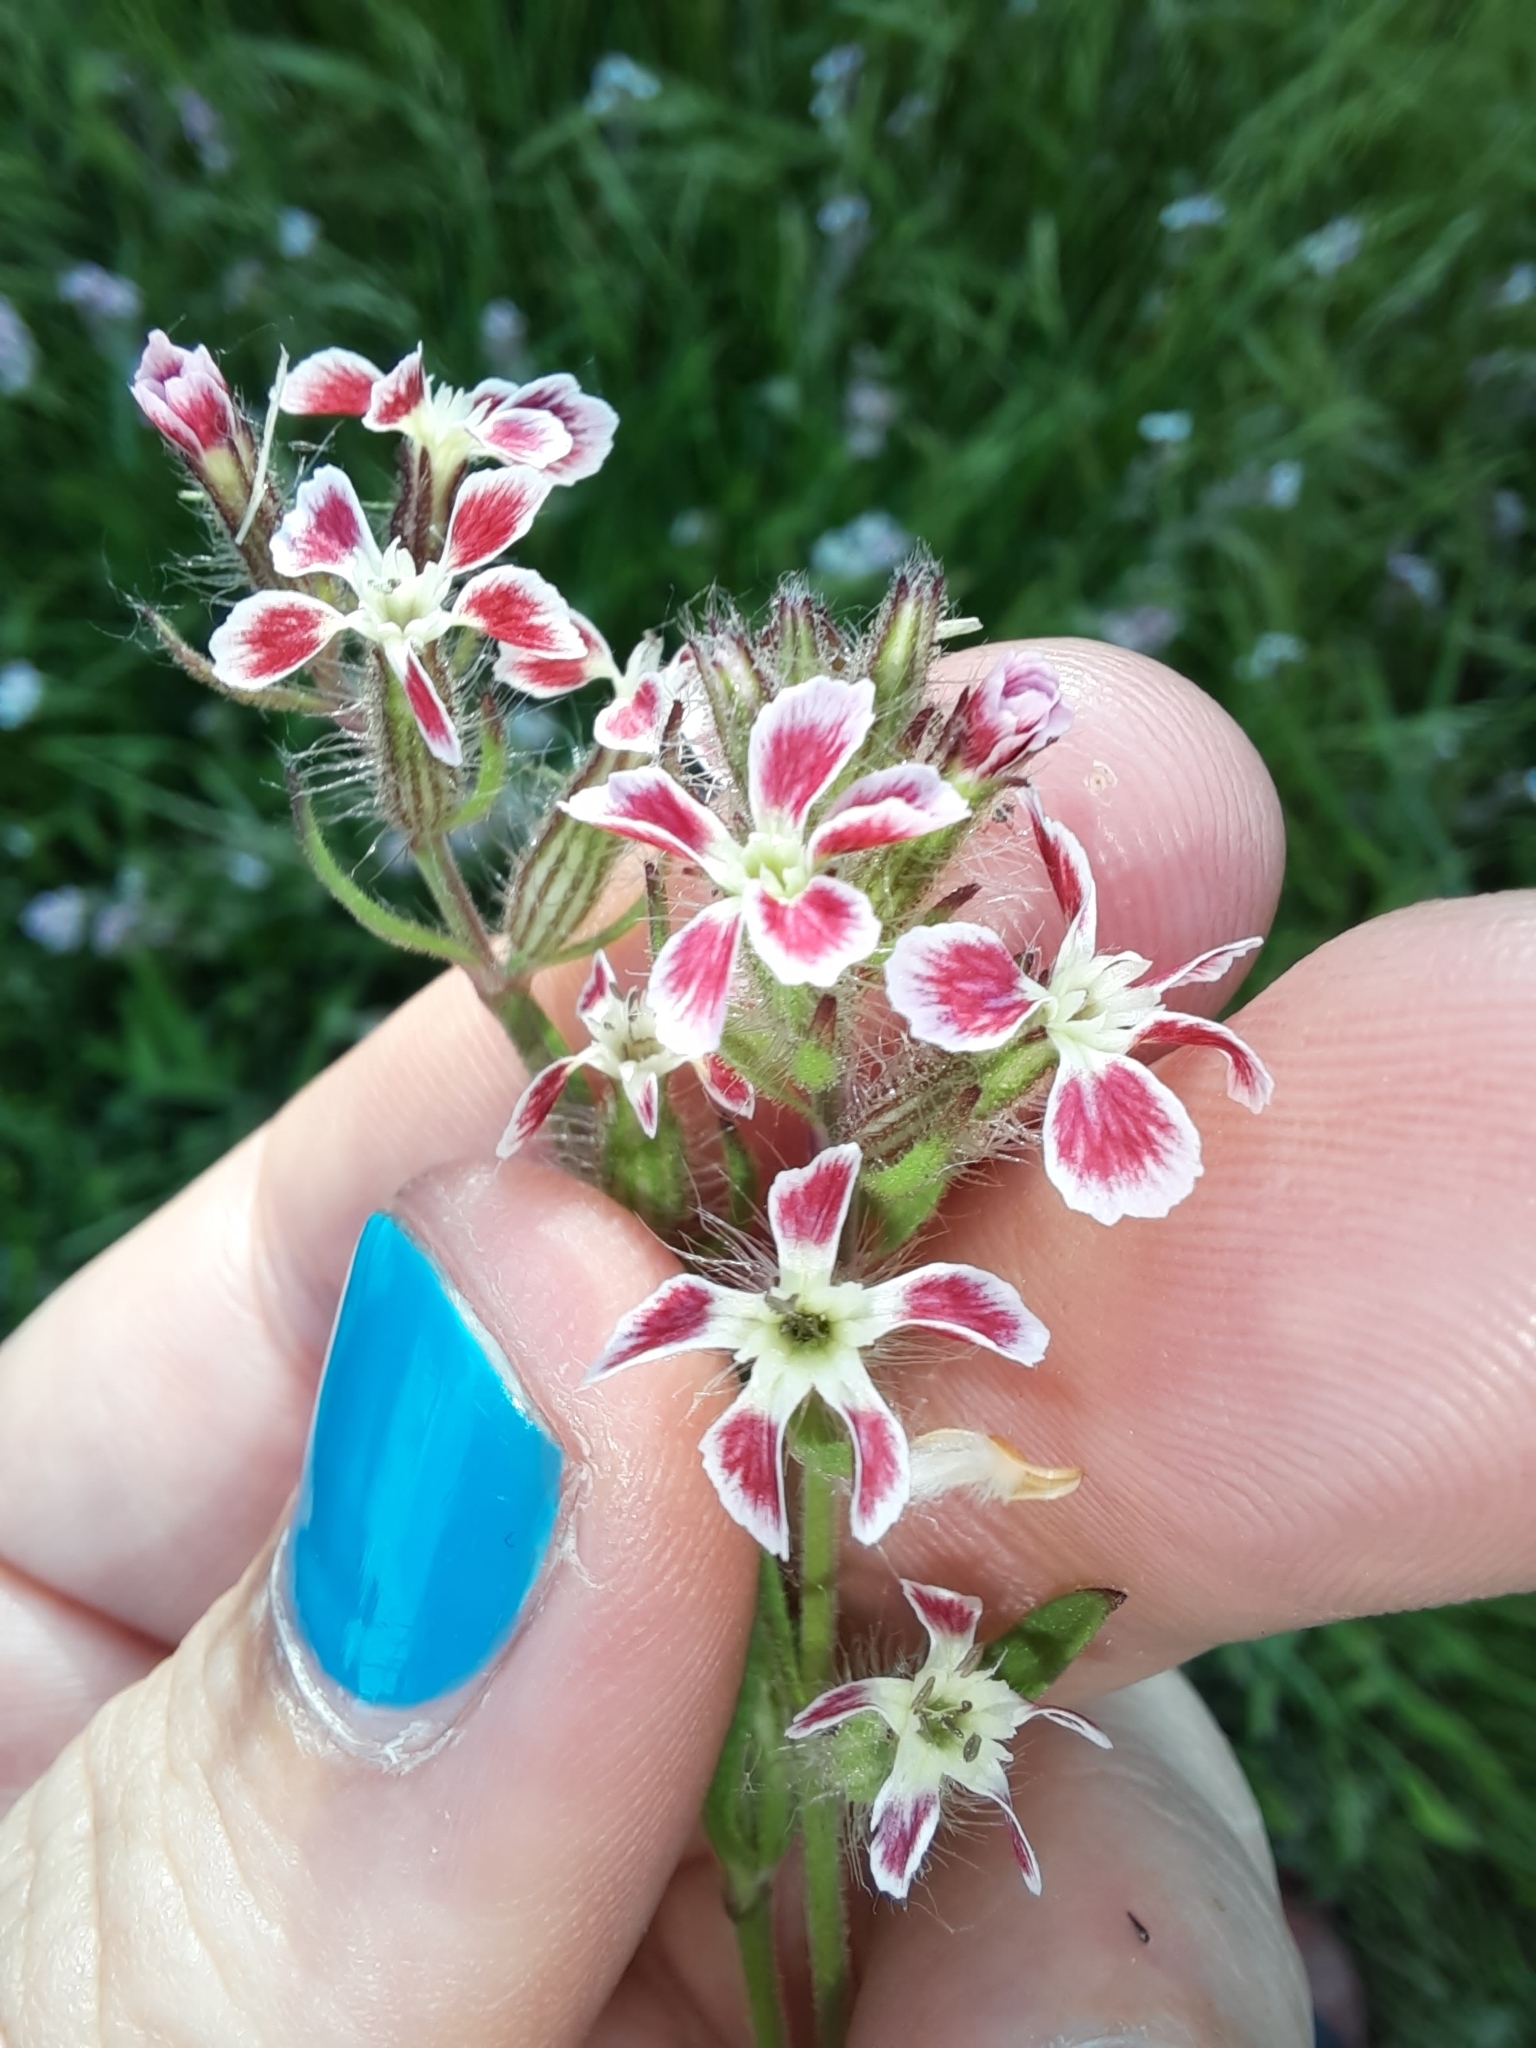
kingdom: Plantae
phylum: Tracheophyta
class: Magnoliopsida
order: Caryophyllales
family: Caryophyllaceae
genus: Silene
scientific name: Silene gallica
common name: Small-flowered catchfly
